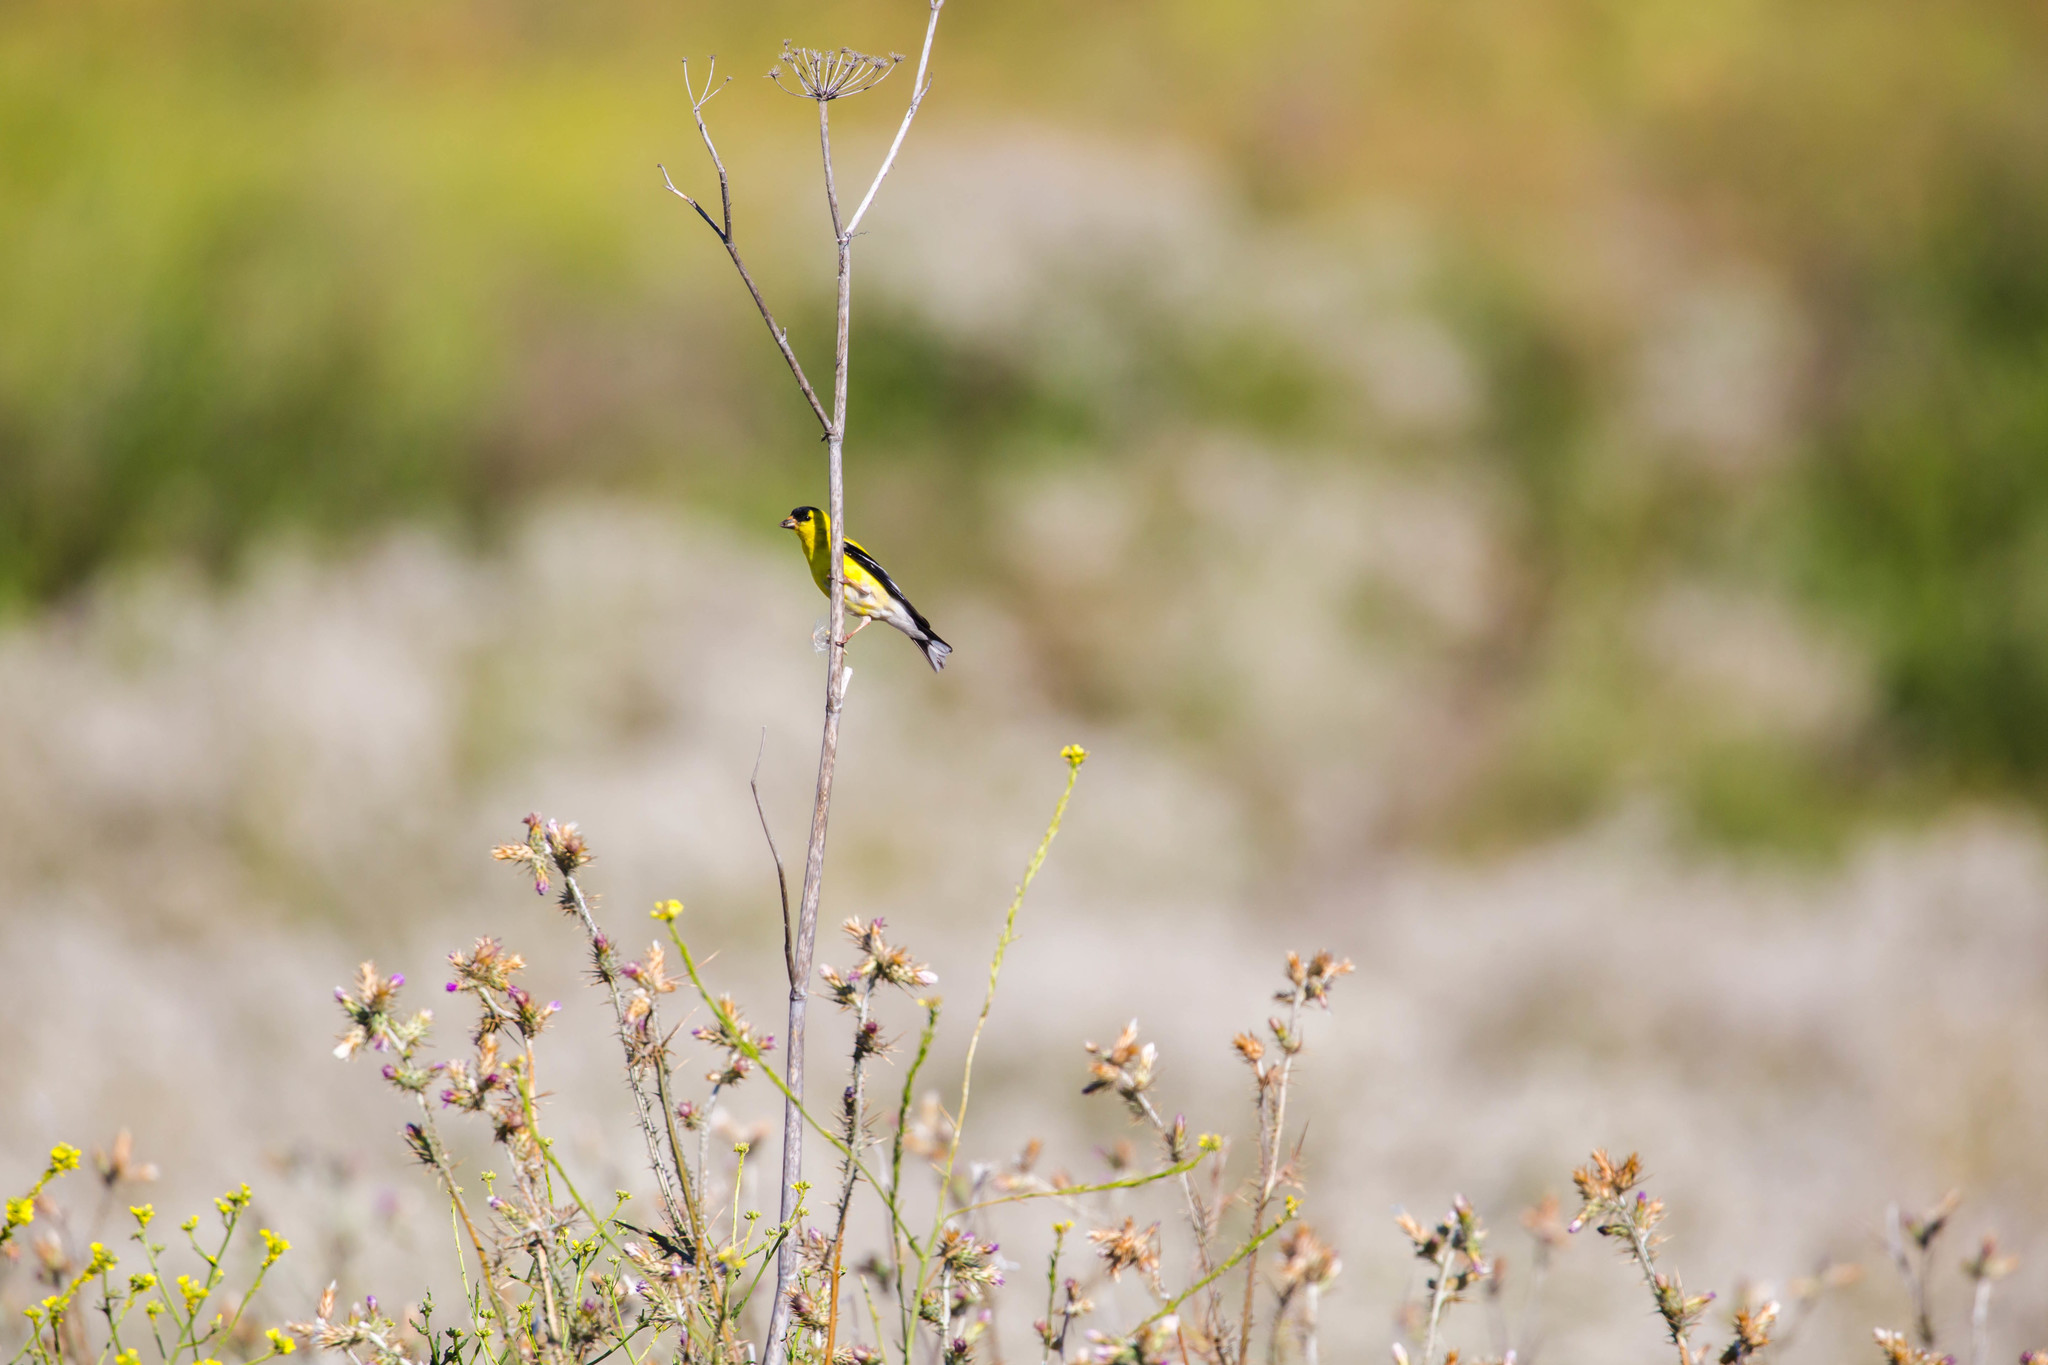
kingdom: Animalia
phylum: Chordata
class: Aves
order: Passeriformes
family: Fringillidae
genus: Spinus
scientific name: Spinus tristis
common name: American goldfinch
